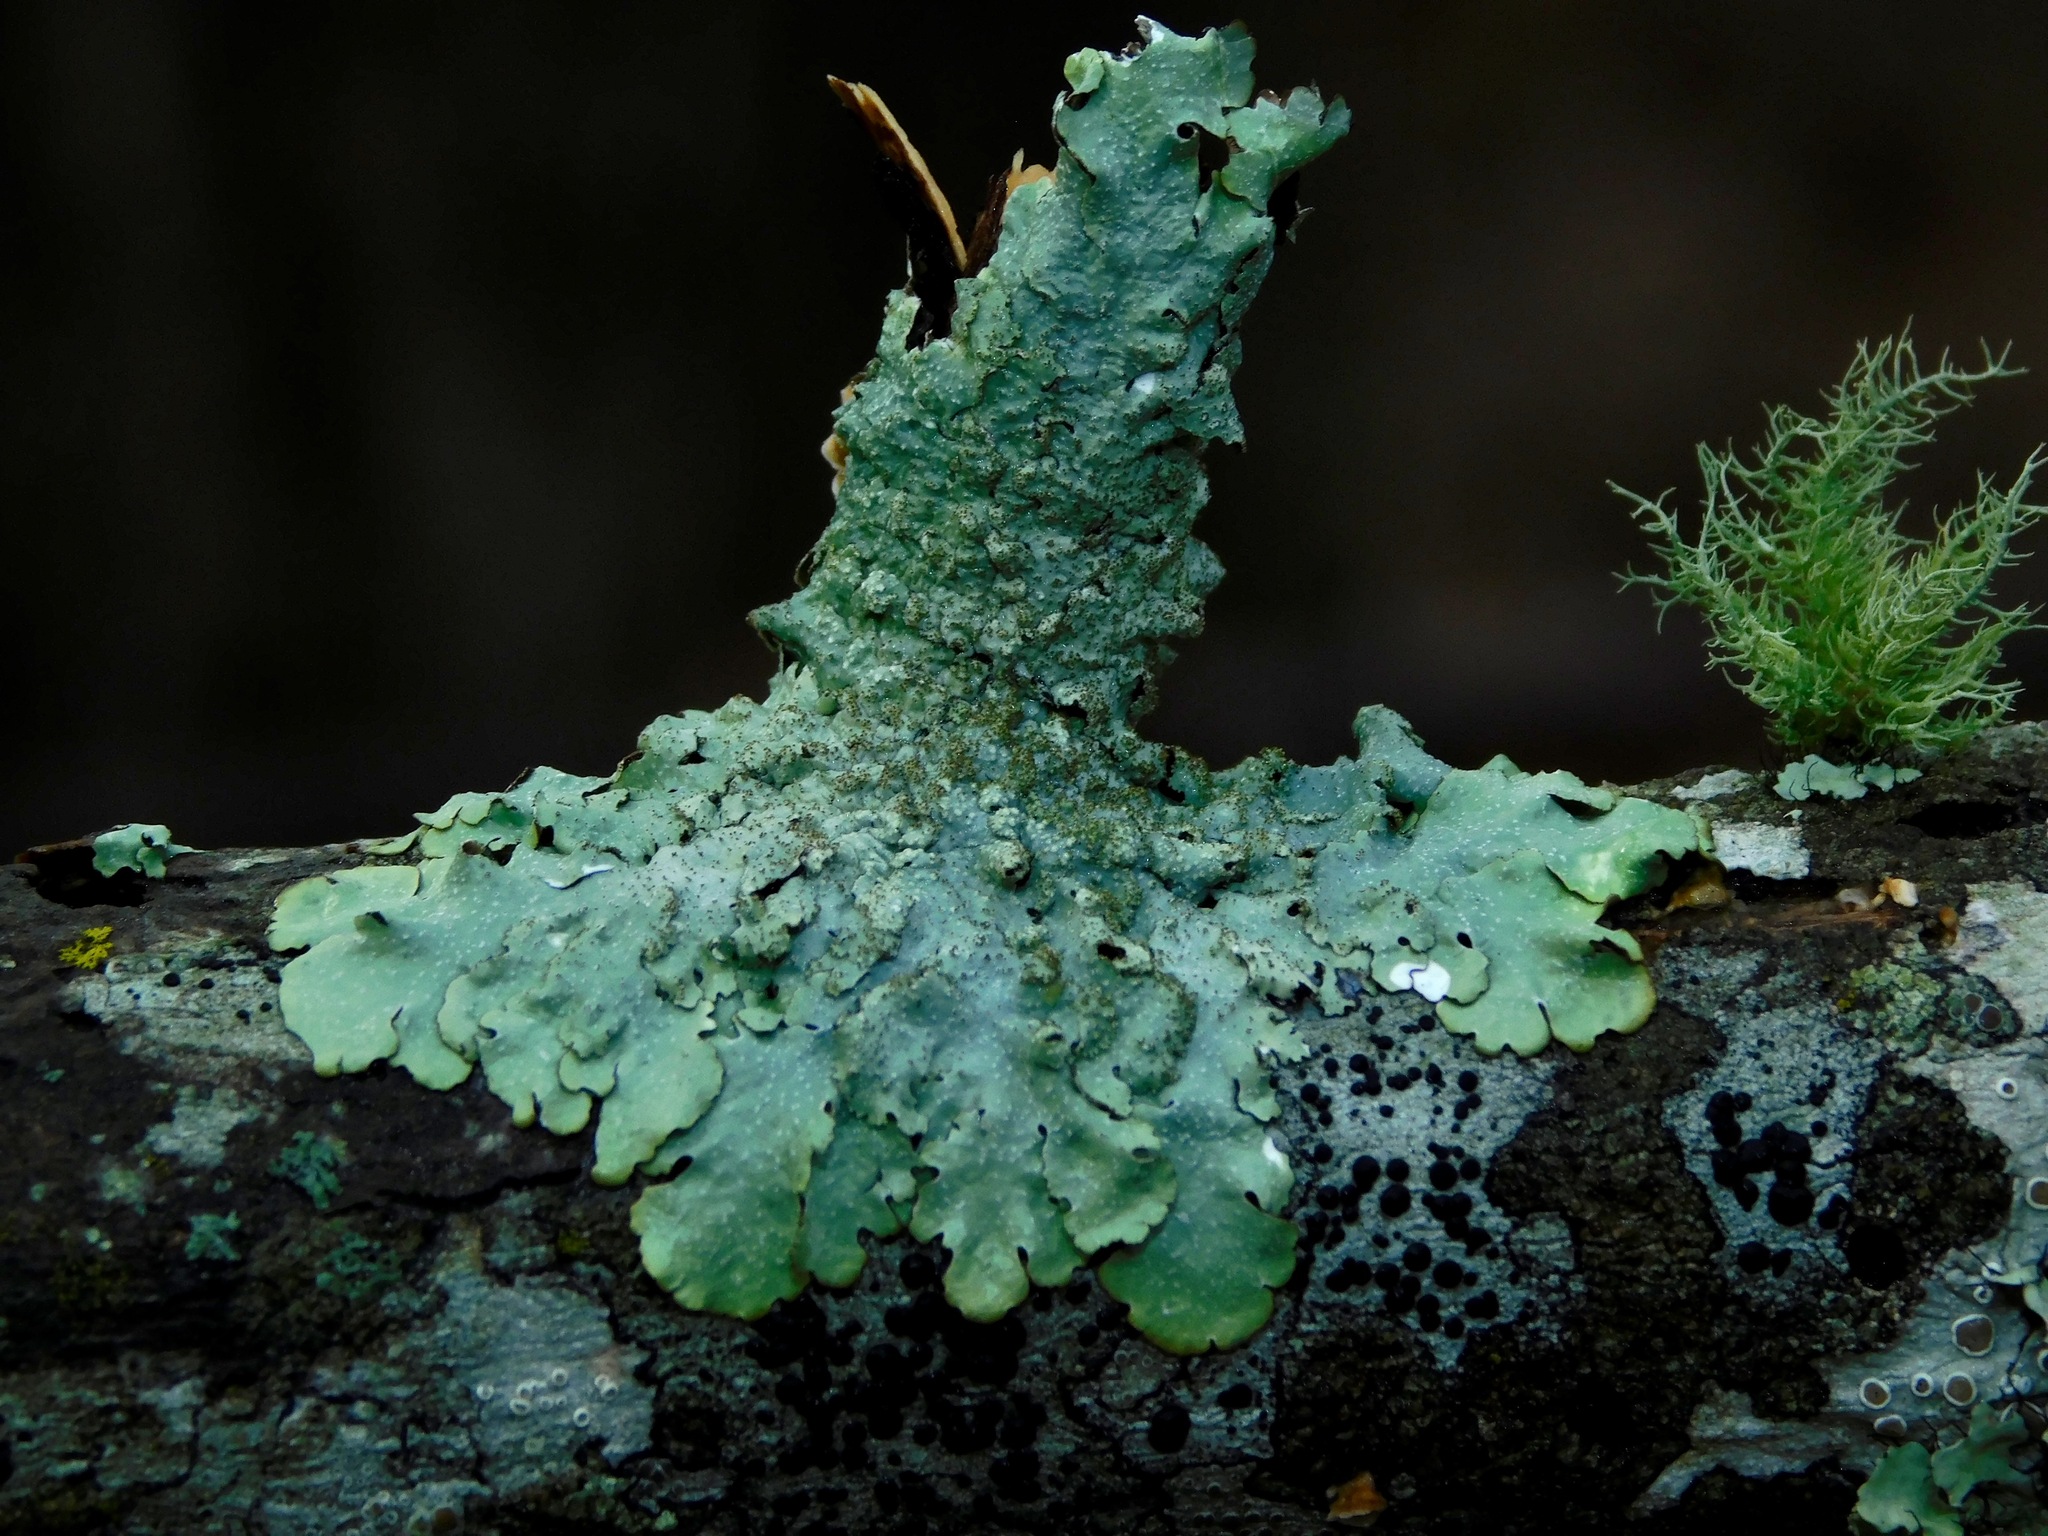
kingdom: Fungi
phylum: Ascomycota
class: Lecanoromycetes
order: Lecanorales
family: Parmeliaceae
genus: Punctelia
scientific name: Punctelia rudecta
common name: Rough speckled shield lichen
